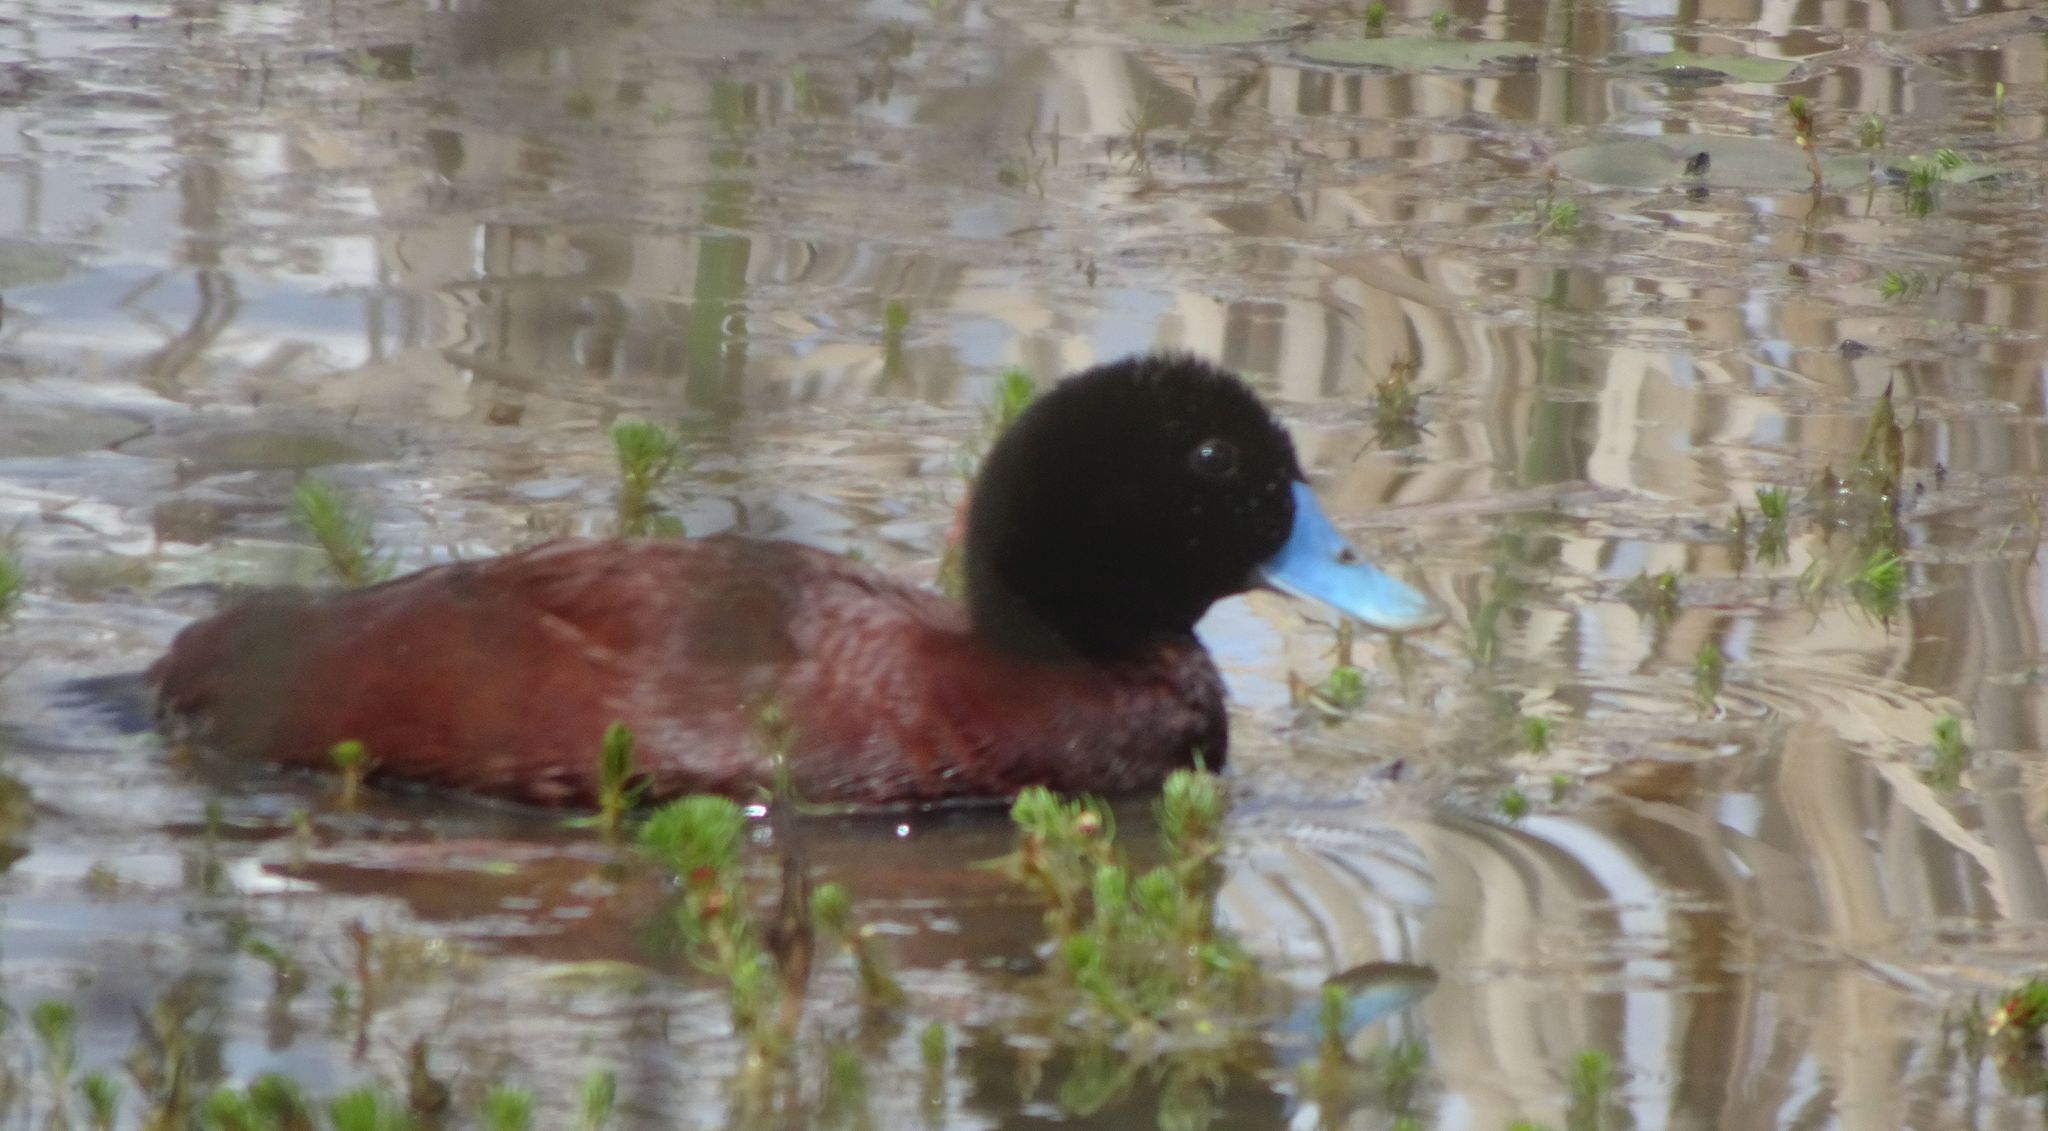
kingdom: Animalia
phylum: Chordata
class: Aves
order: Anseriformes
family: Anatidae
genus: Oxyura
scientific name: Oxyura australis
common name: Blue-billed duck
